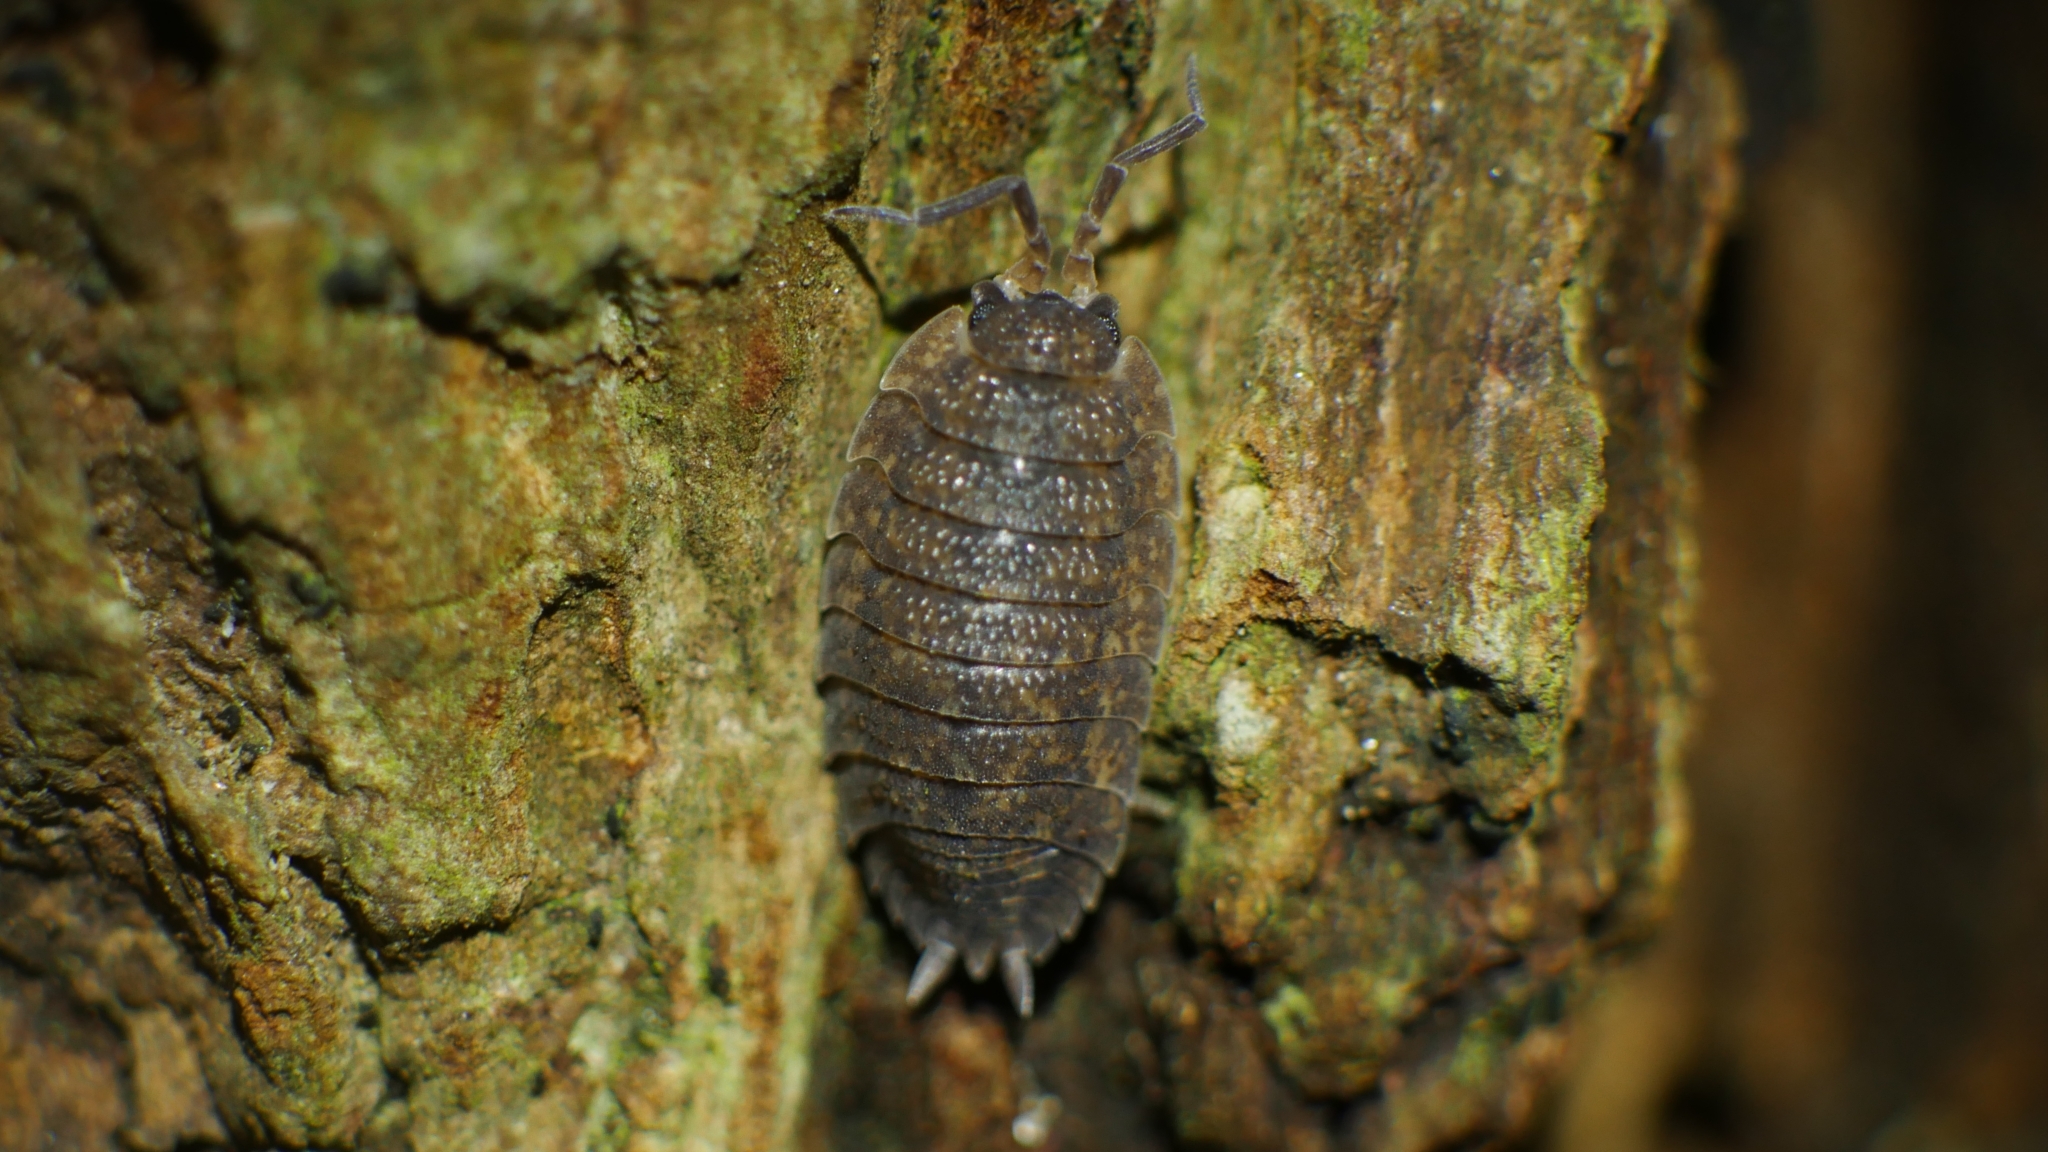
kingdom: Animalia
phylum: Arthropoda
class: Malacostraca
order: Isopoda
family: Porcellionidae
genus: Porcellio
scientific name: Porcellio scaber
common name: Common rough woodlouse
